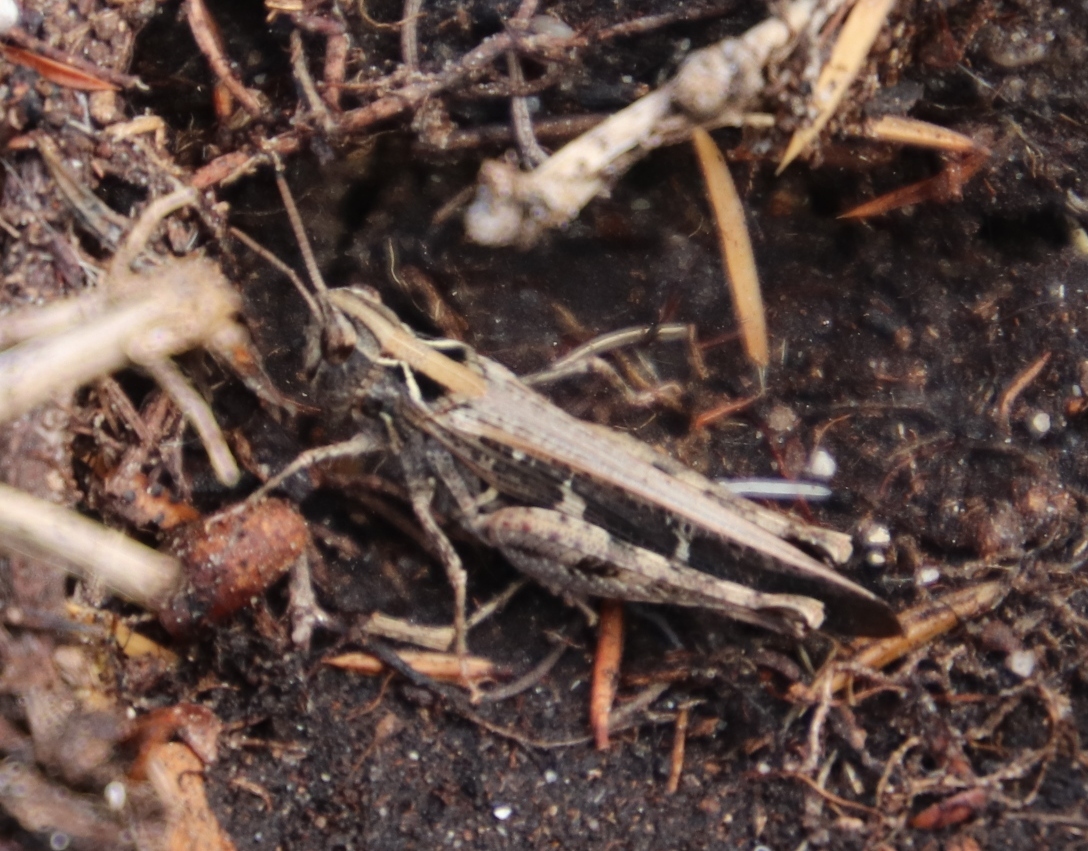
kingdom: Animalia
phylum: Arthropoda
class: Insecta
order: Orthoptera
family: Acrididae
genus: Anaeolopus
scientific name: Anaeolopus dorsalis
